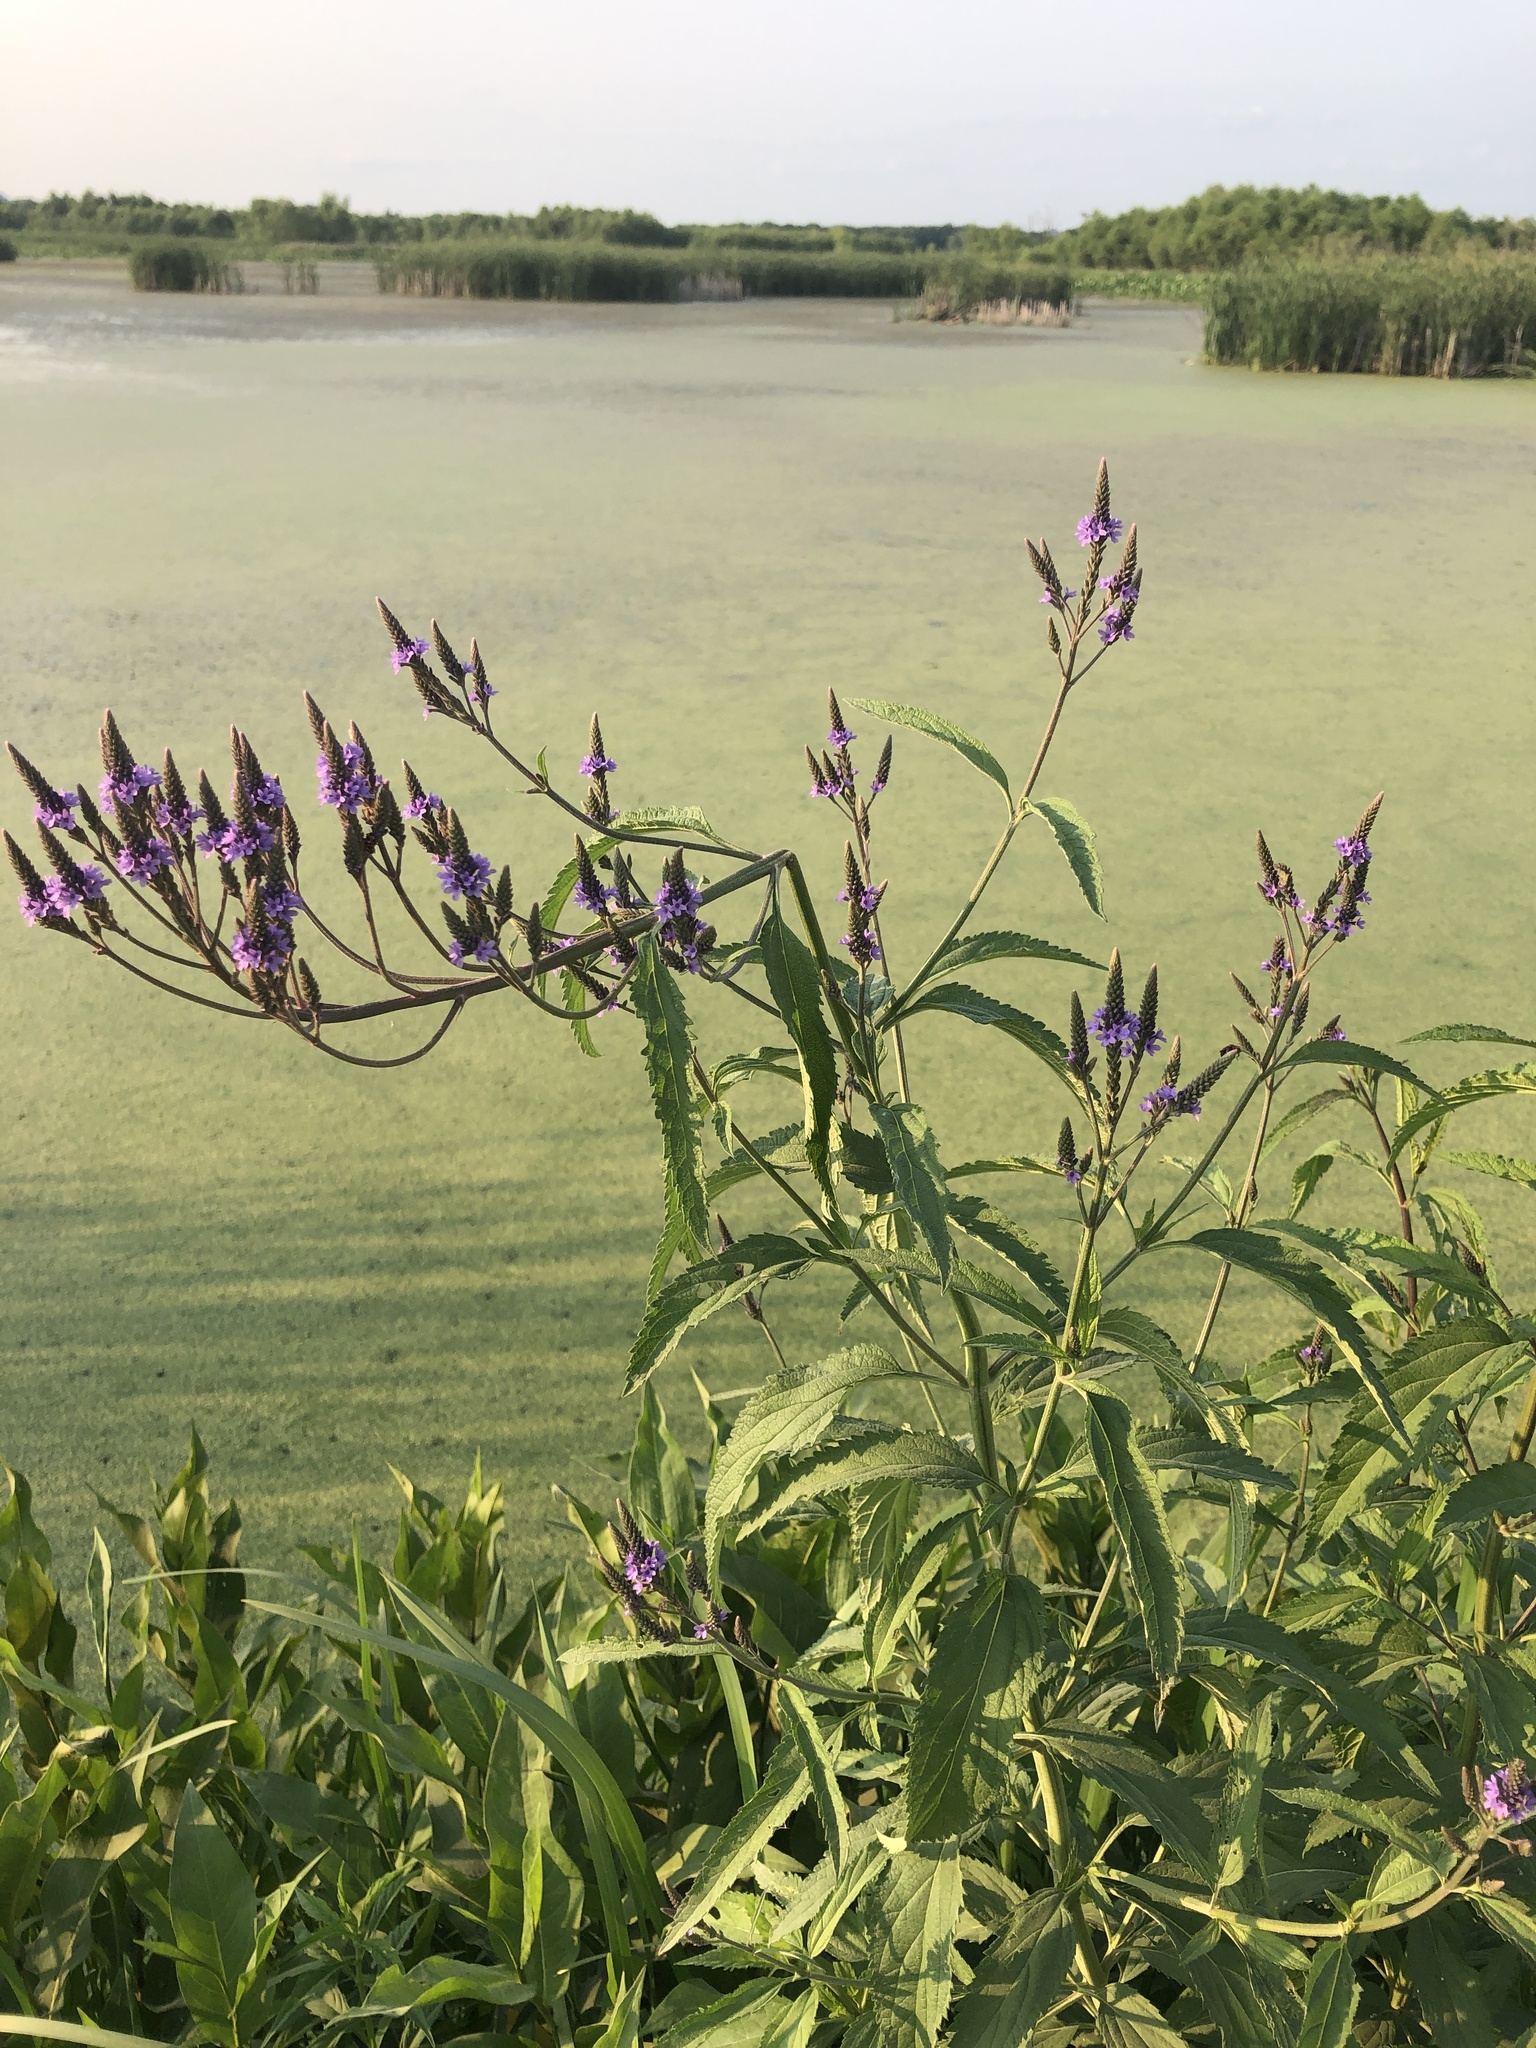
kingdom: Plantae
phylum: Tracheophyta
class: Magnoliopsida
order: Lamiales
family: Verbenaceae
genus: Verbena
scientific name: Verbena hastata
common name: American blue vervain
